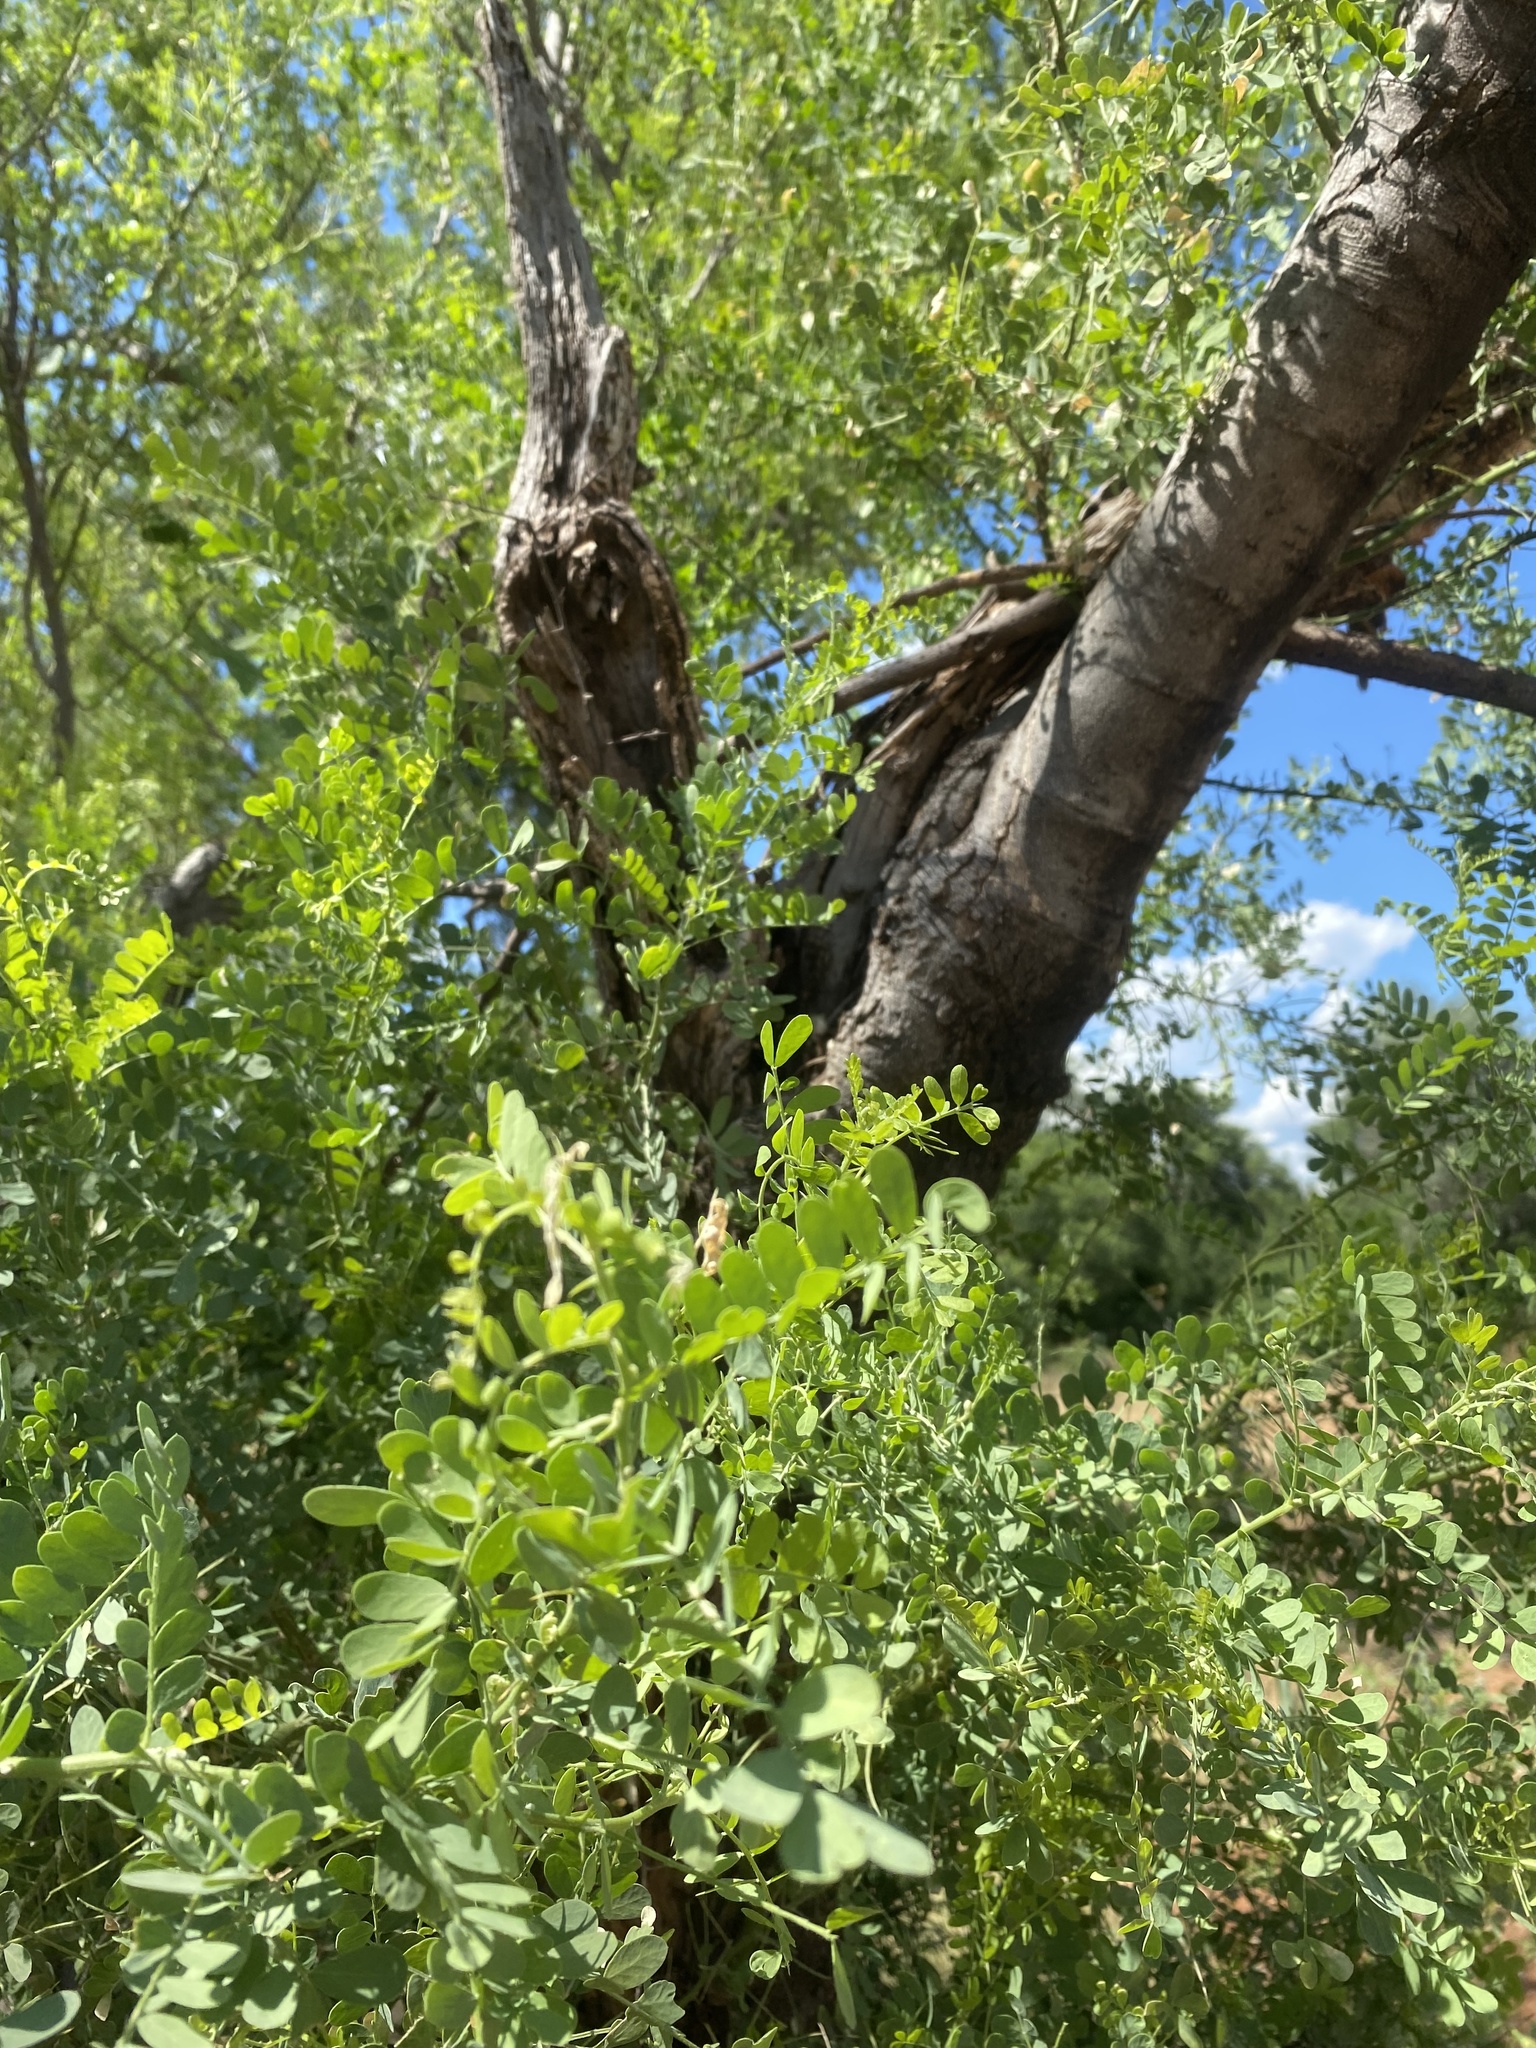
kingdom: Plantae
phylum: Tracheophyta
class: Magnoliopsida
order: Fabales
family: Fabaceae
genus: Olneya
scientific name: Olneya tesota
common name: Desert ironwood
